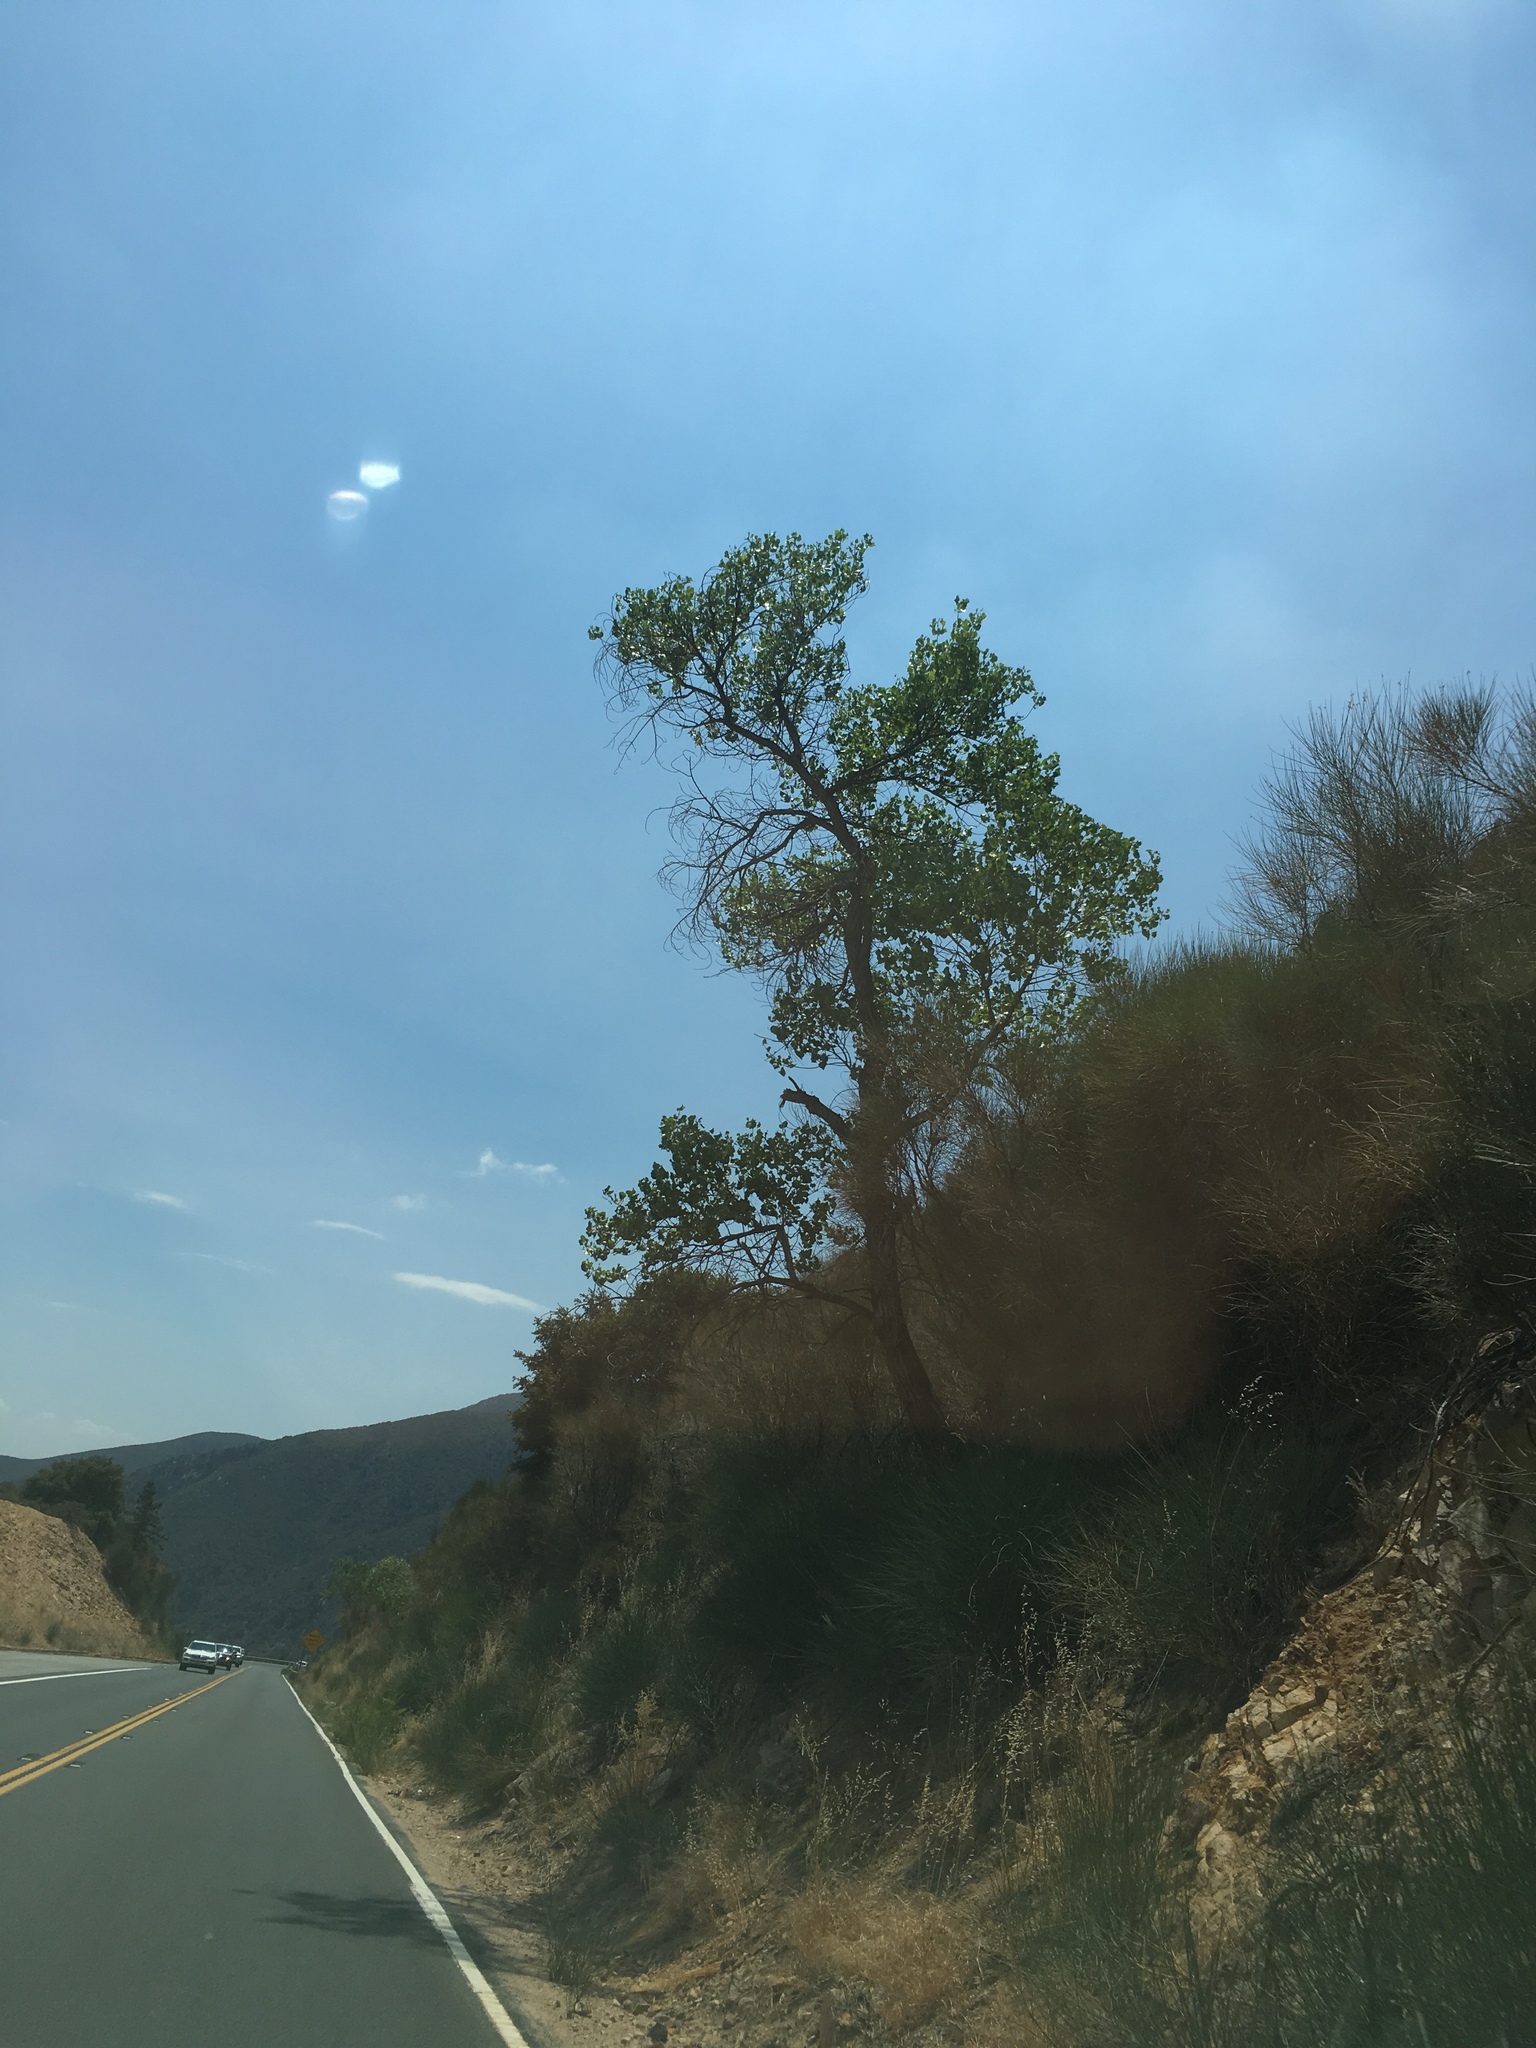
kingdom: Plantae
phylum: Tracheophyta
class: Magnoliopsida
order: Malpighiales
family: Salicaceae
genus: Populus
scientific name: Populus fremontii
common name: Fremont's cottonwood
